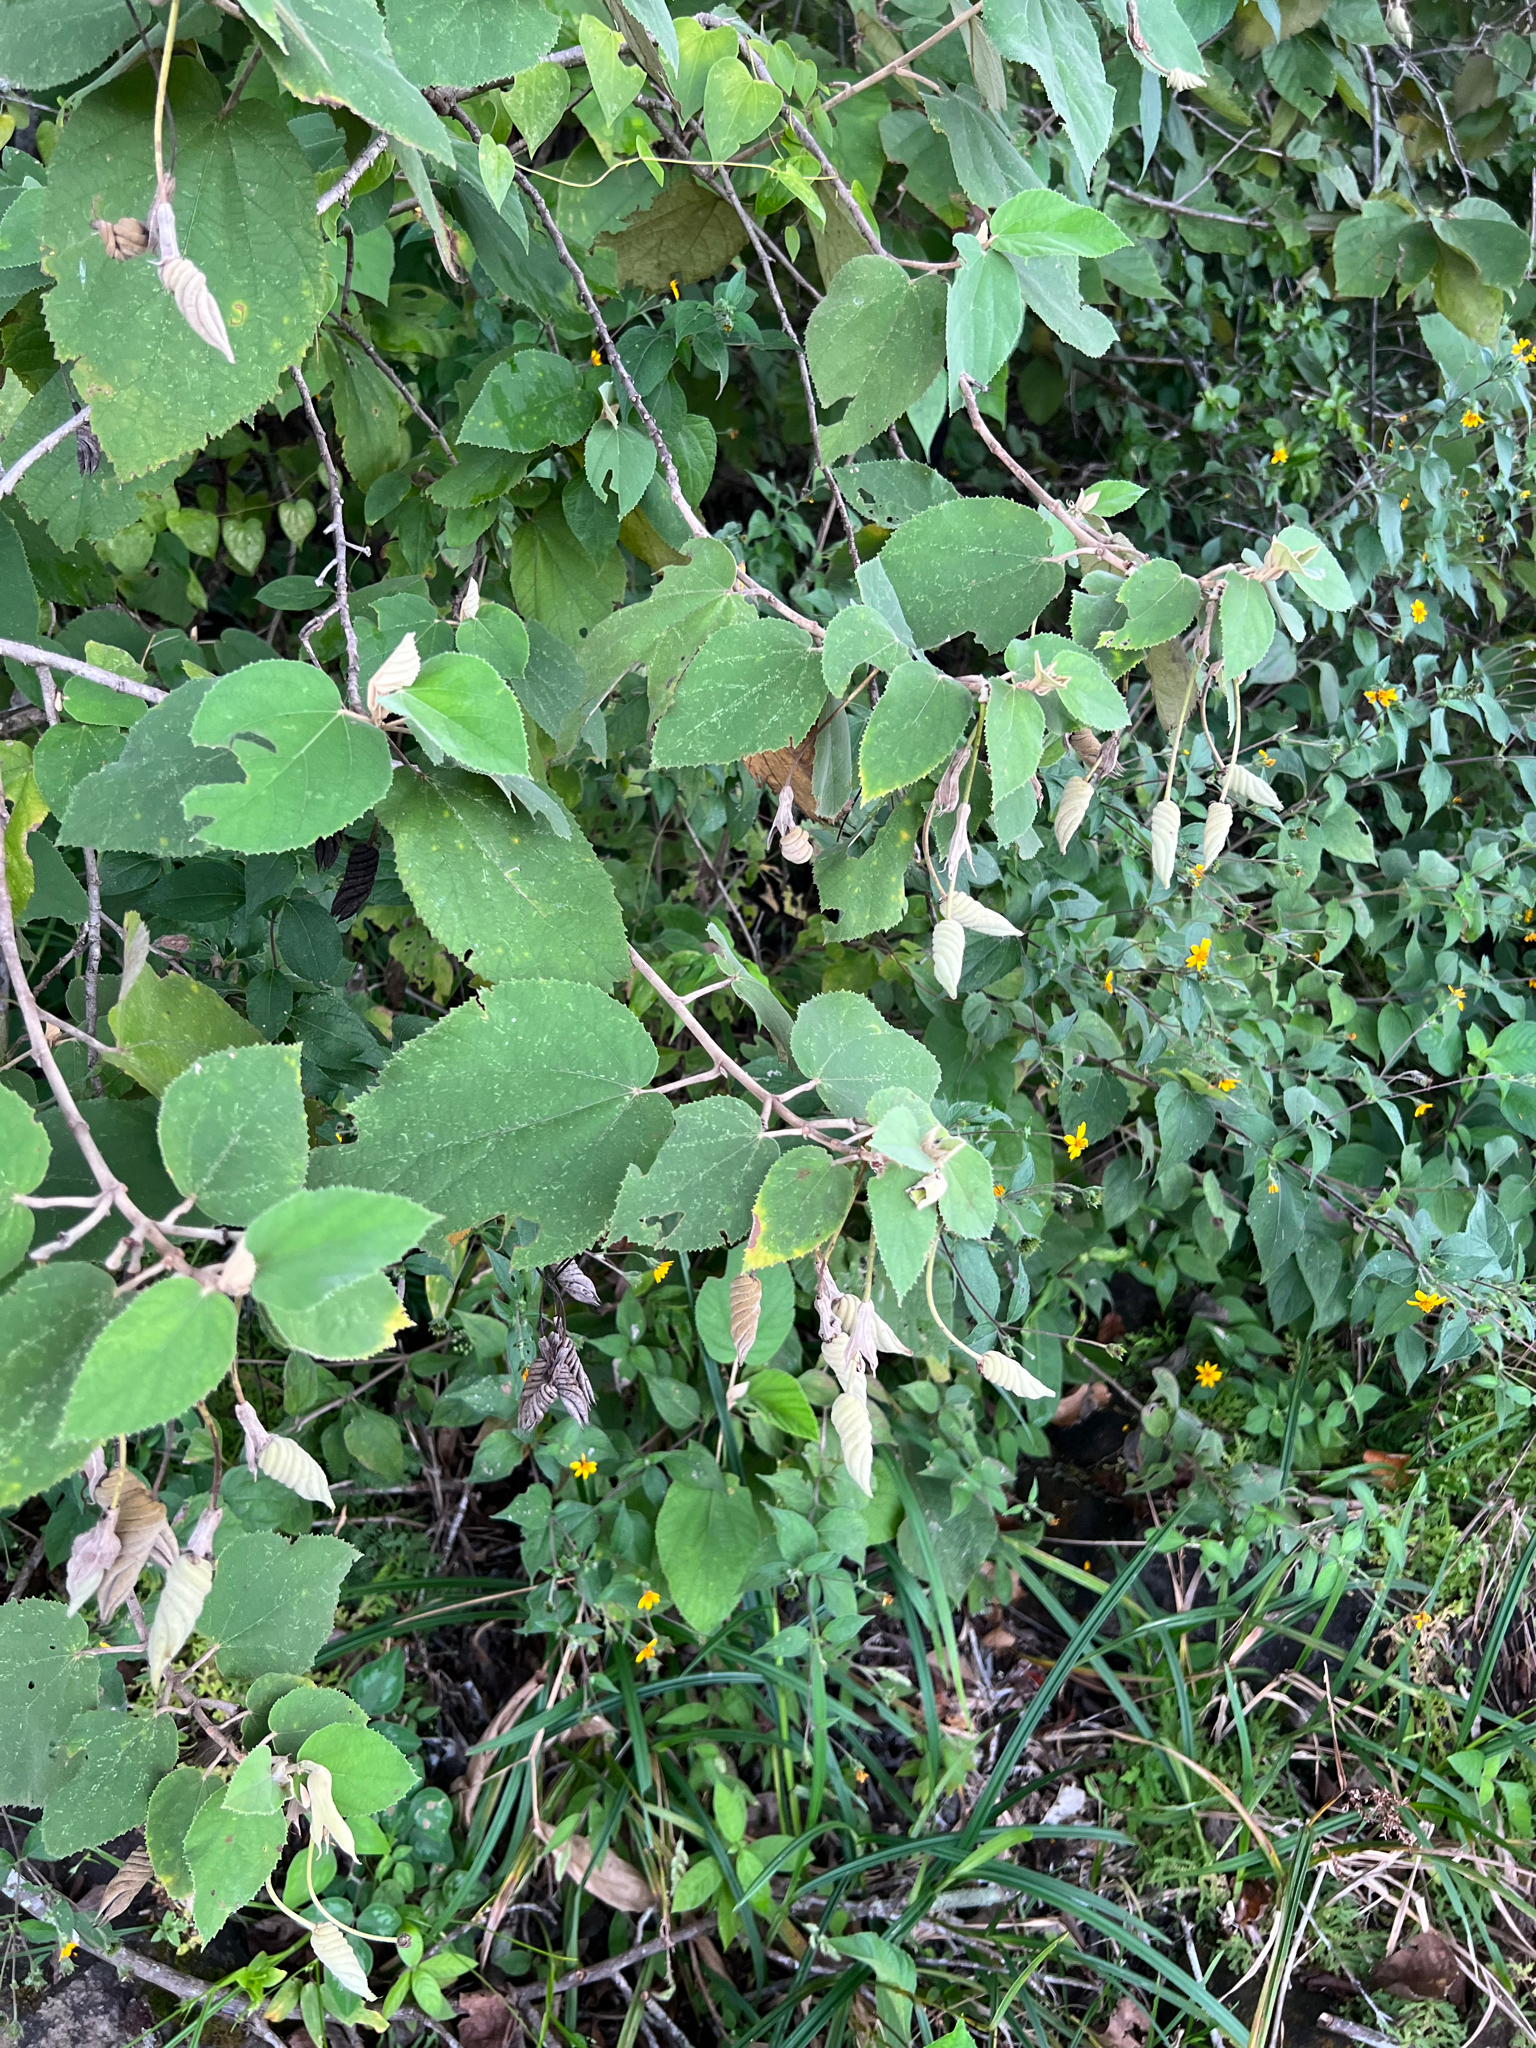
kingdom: Plantae
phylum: Tracheophyta
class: Magnoliopsida
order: Malvales
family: Malvaceae
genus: Helicteres
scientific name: Helicteres baruensis
